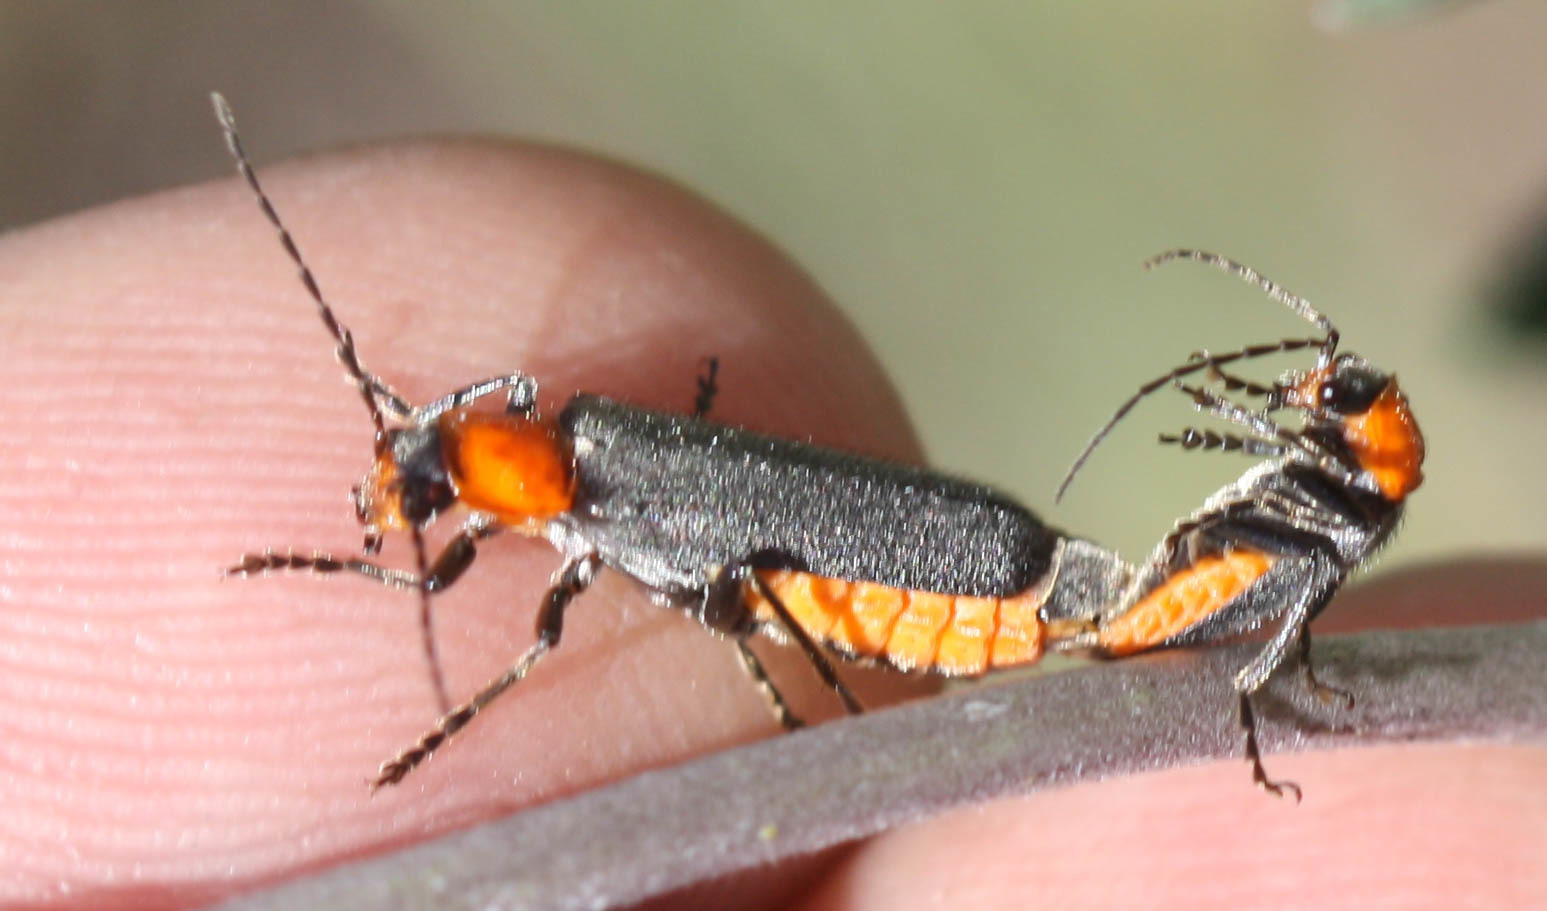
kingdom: Animalia
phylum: Arthropoda
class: Insecta
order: Coleoptera
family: Cantharidae
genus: Cultellunguis
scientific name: Cultellunguis ingenuus
